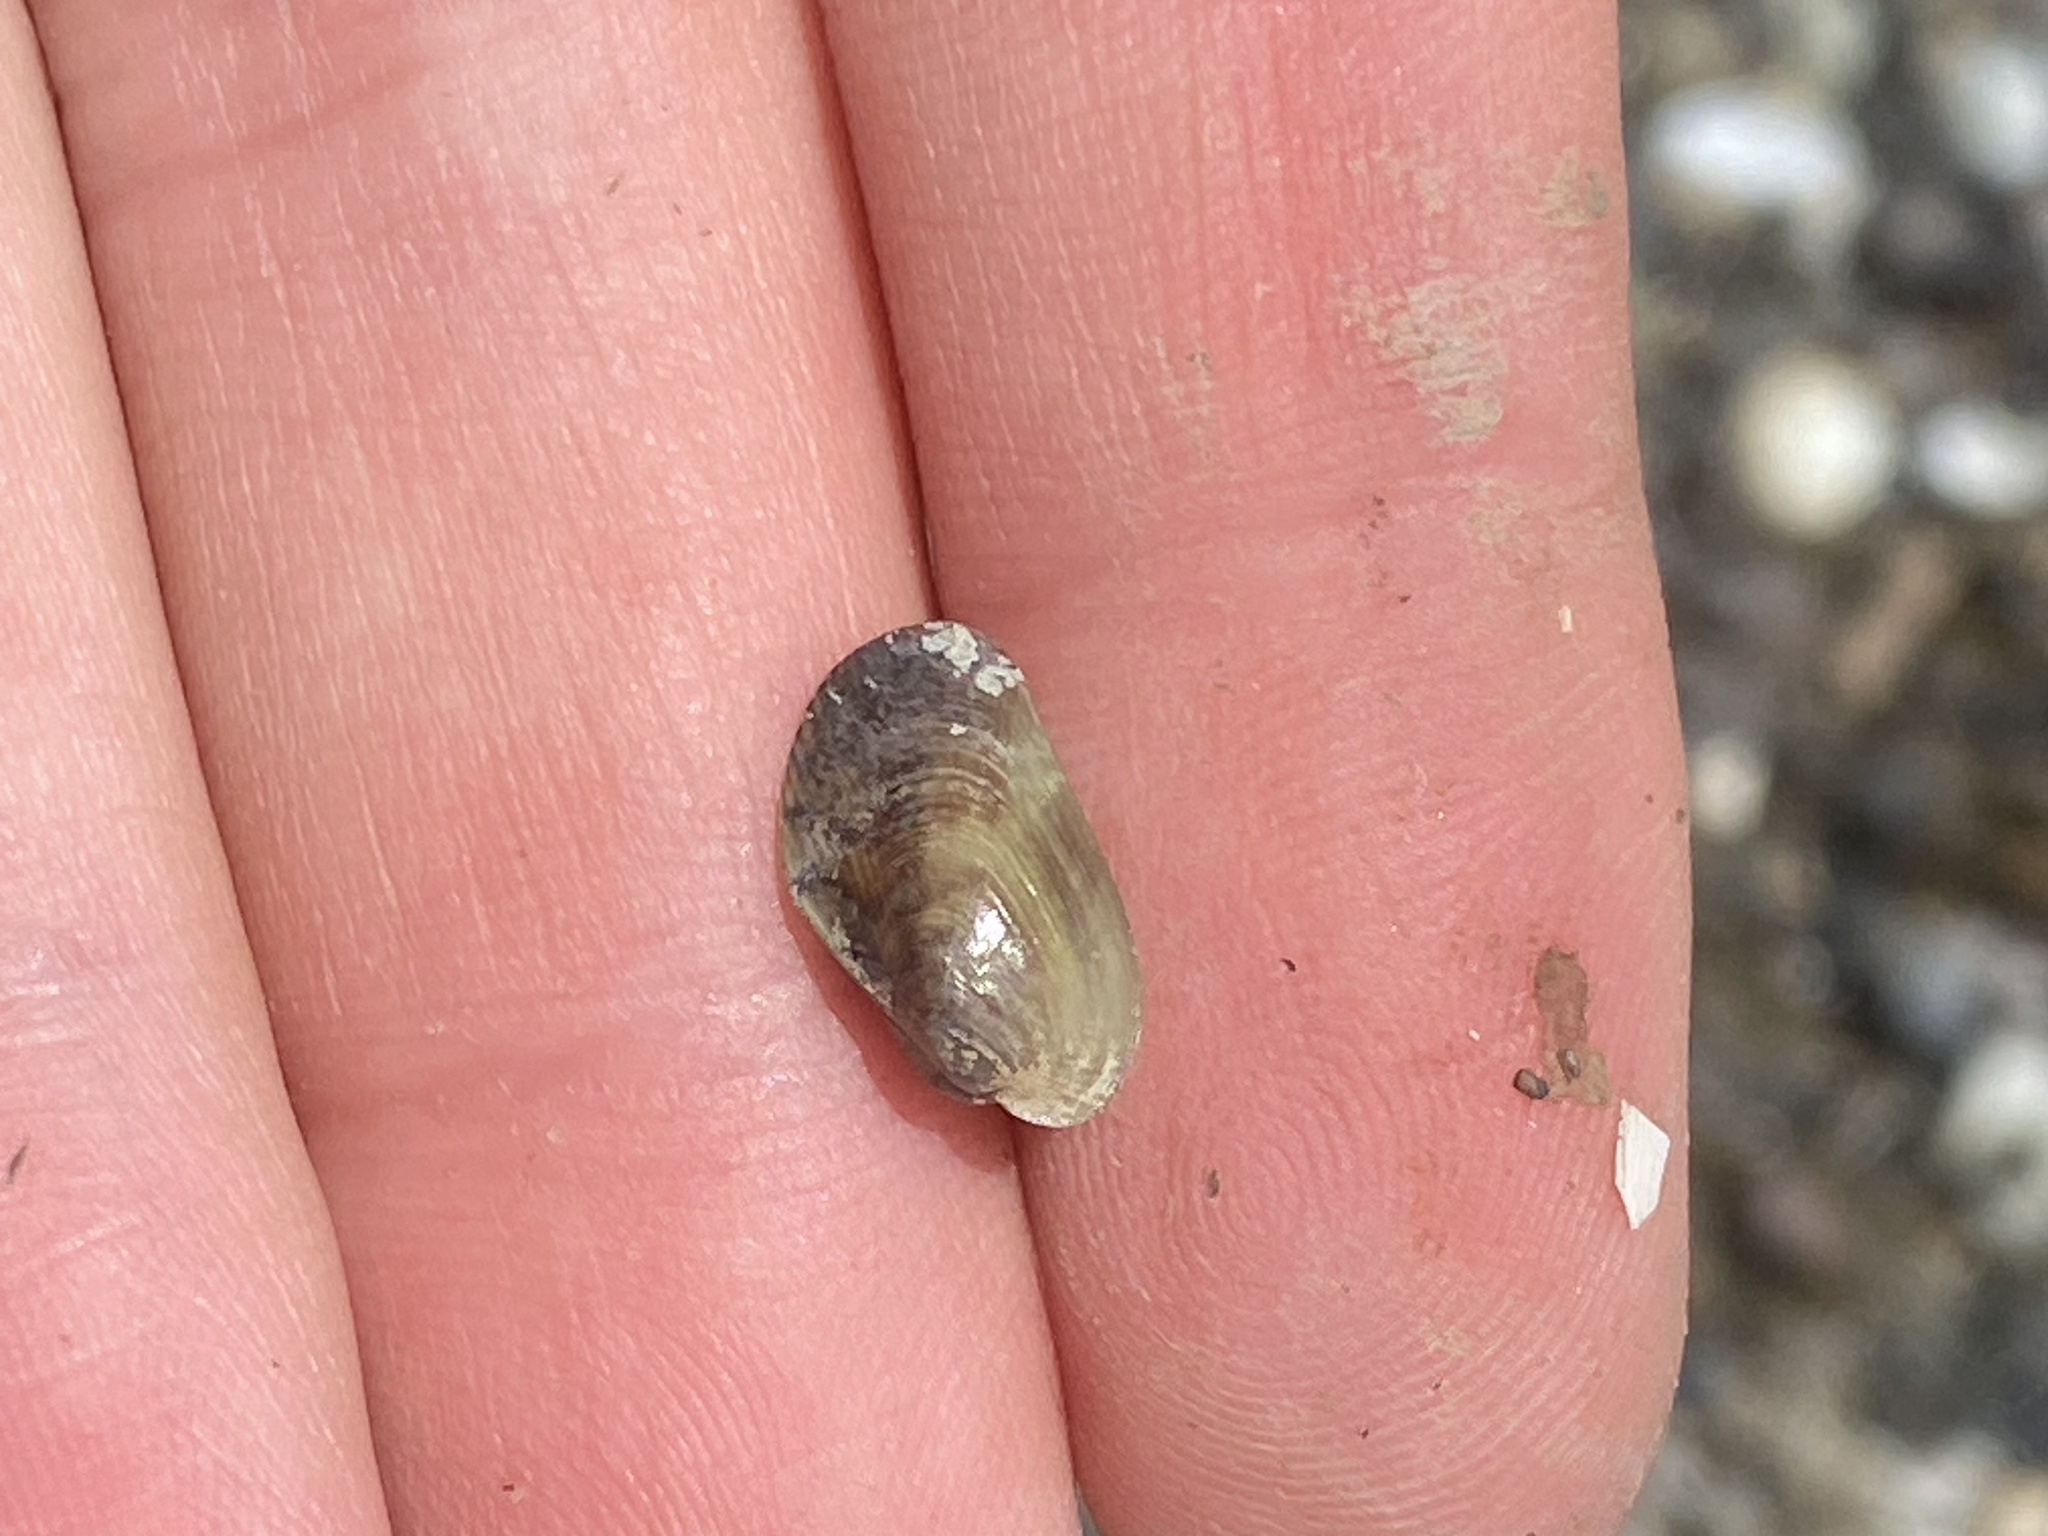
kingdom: Animalia
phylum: Mollusca
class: Bivalvia
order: Mytilida
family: Mytilidae
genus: Arcuatula
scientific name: Arcuatula senhousia
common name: Asian mussel
